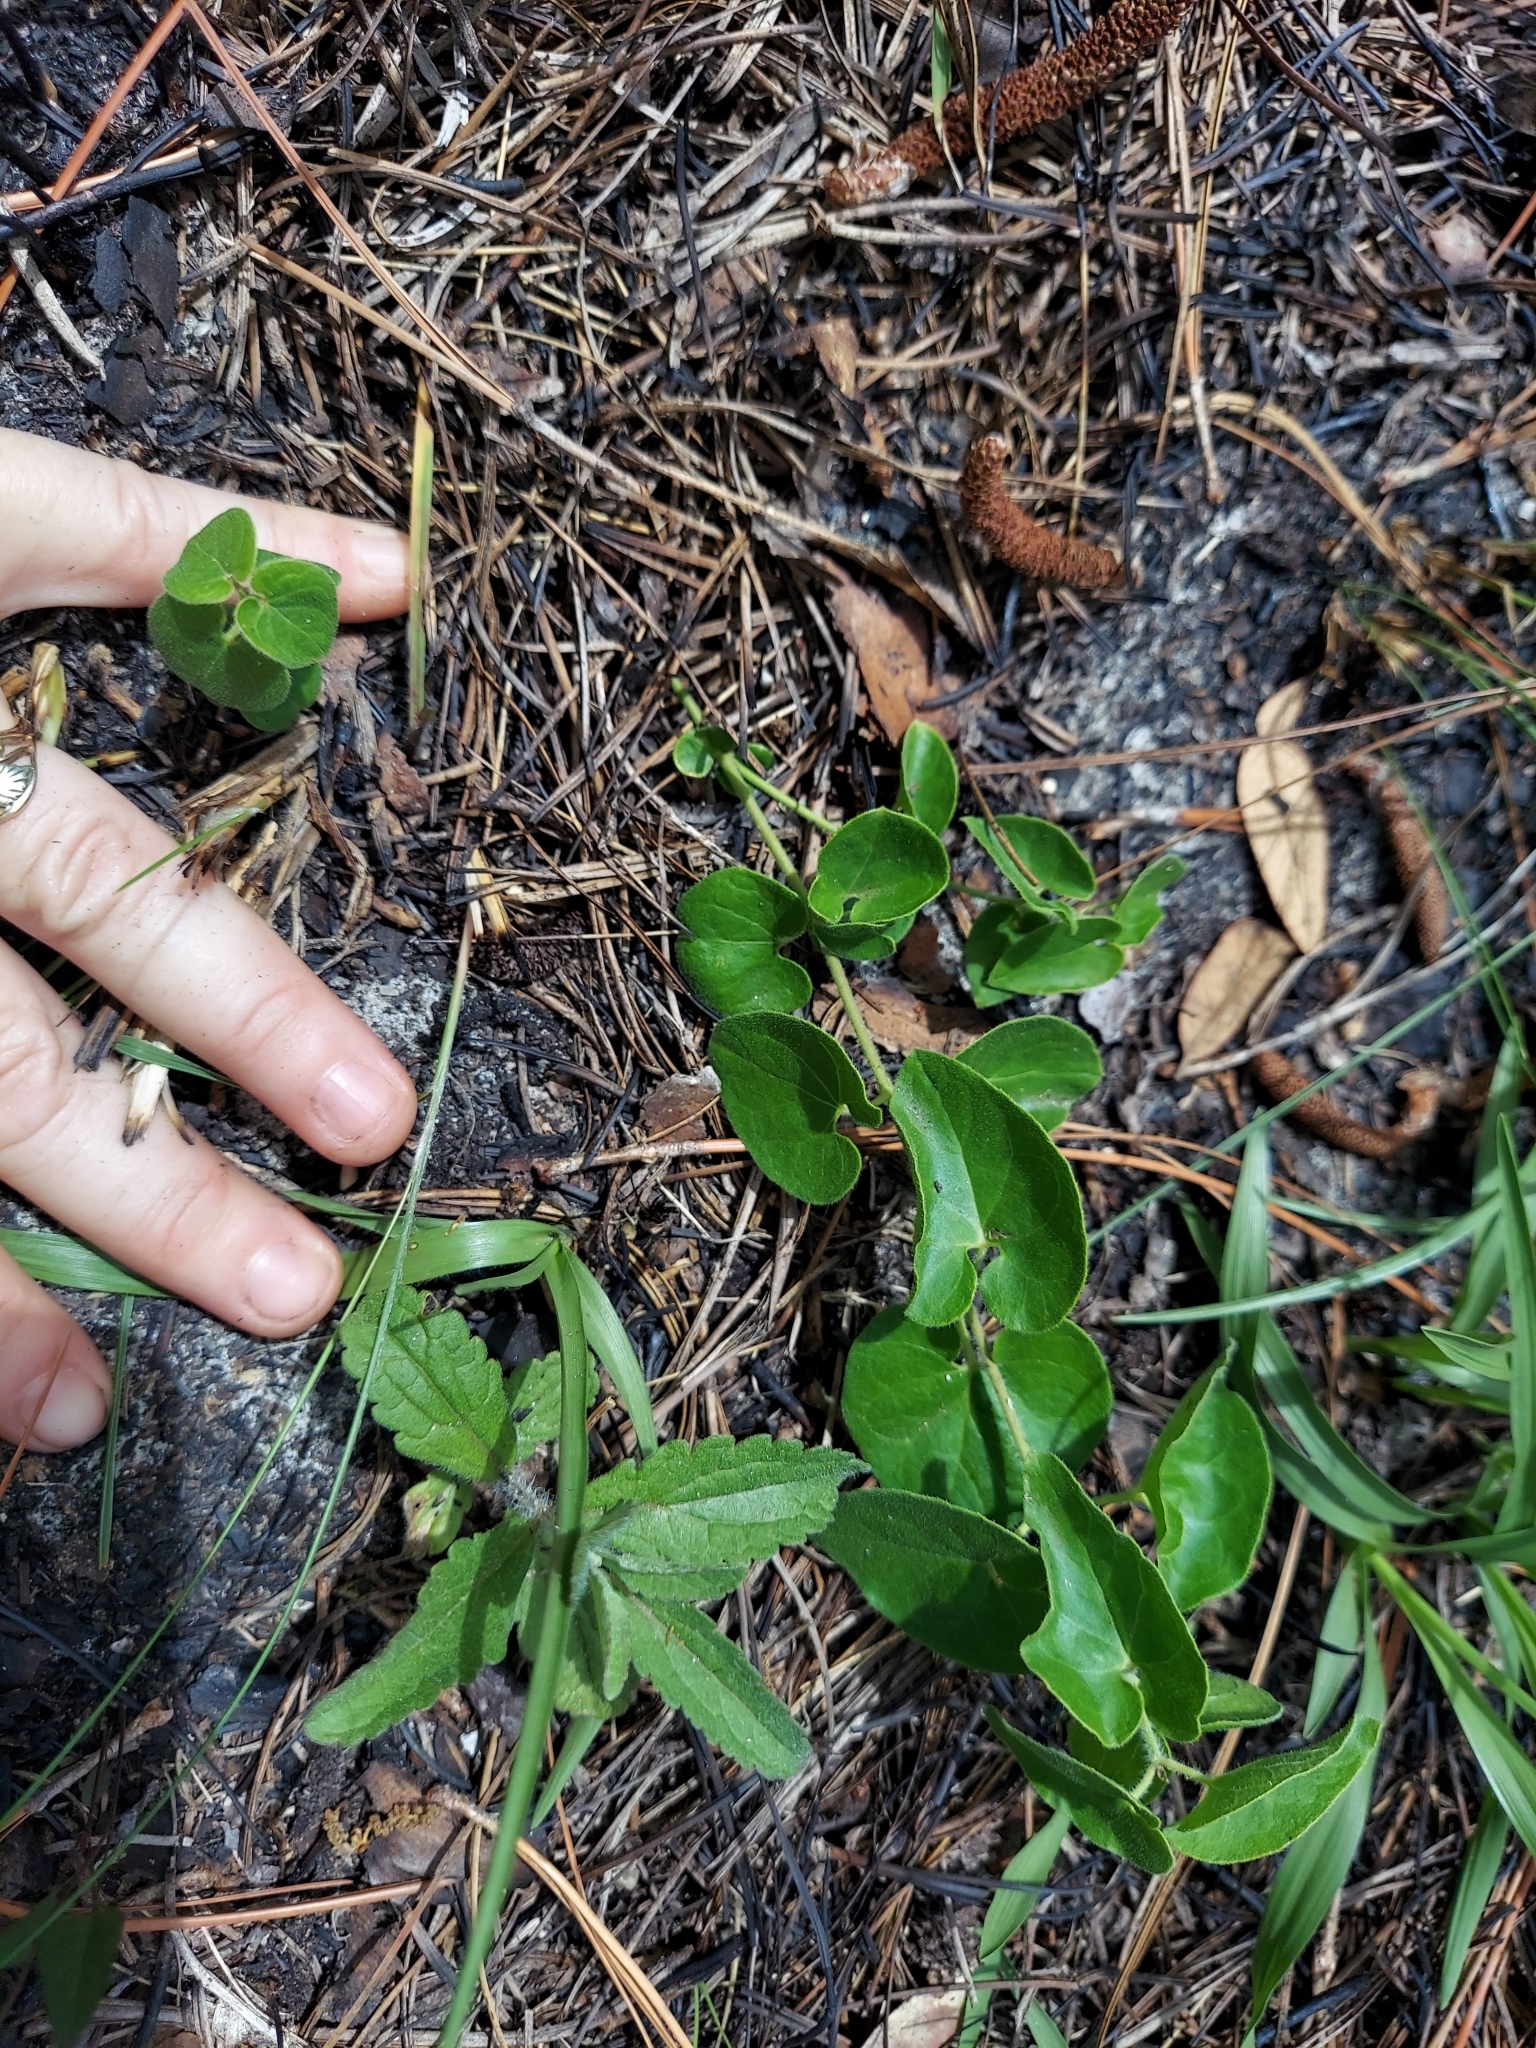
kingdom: Plantae
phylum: Tracheophyta
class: Magnoliopsida
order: Gentianales
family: Apocynaceae
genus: Chthamalia
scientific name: Chthamalia pubiflora
